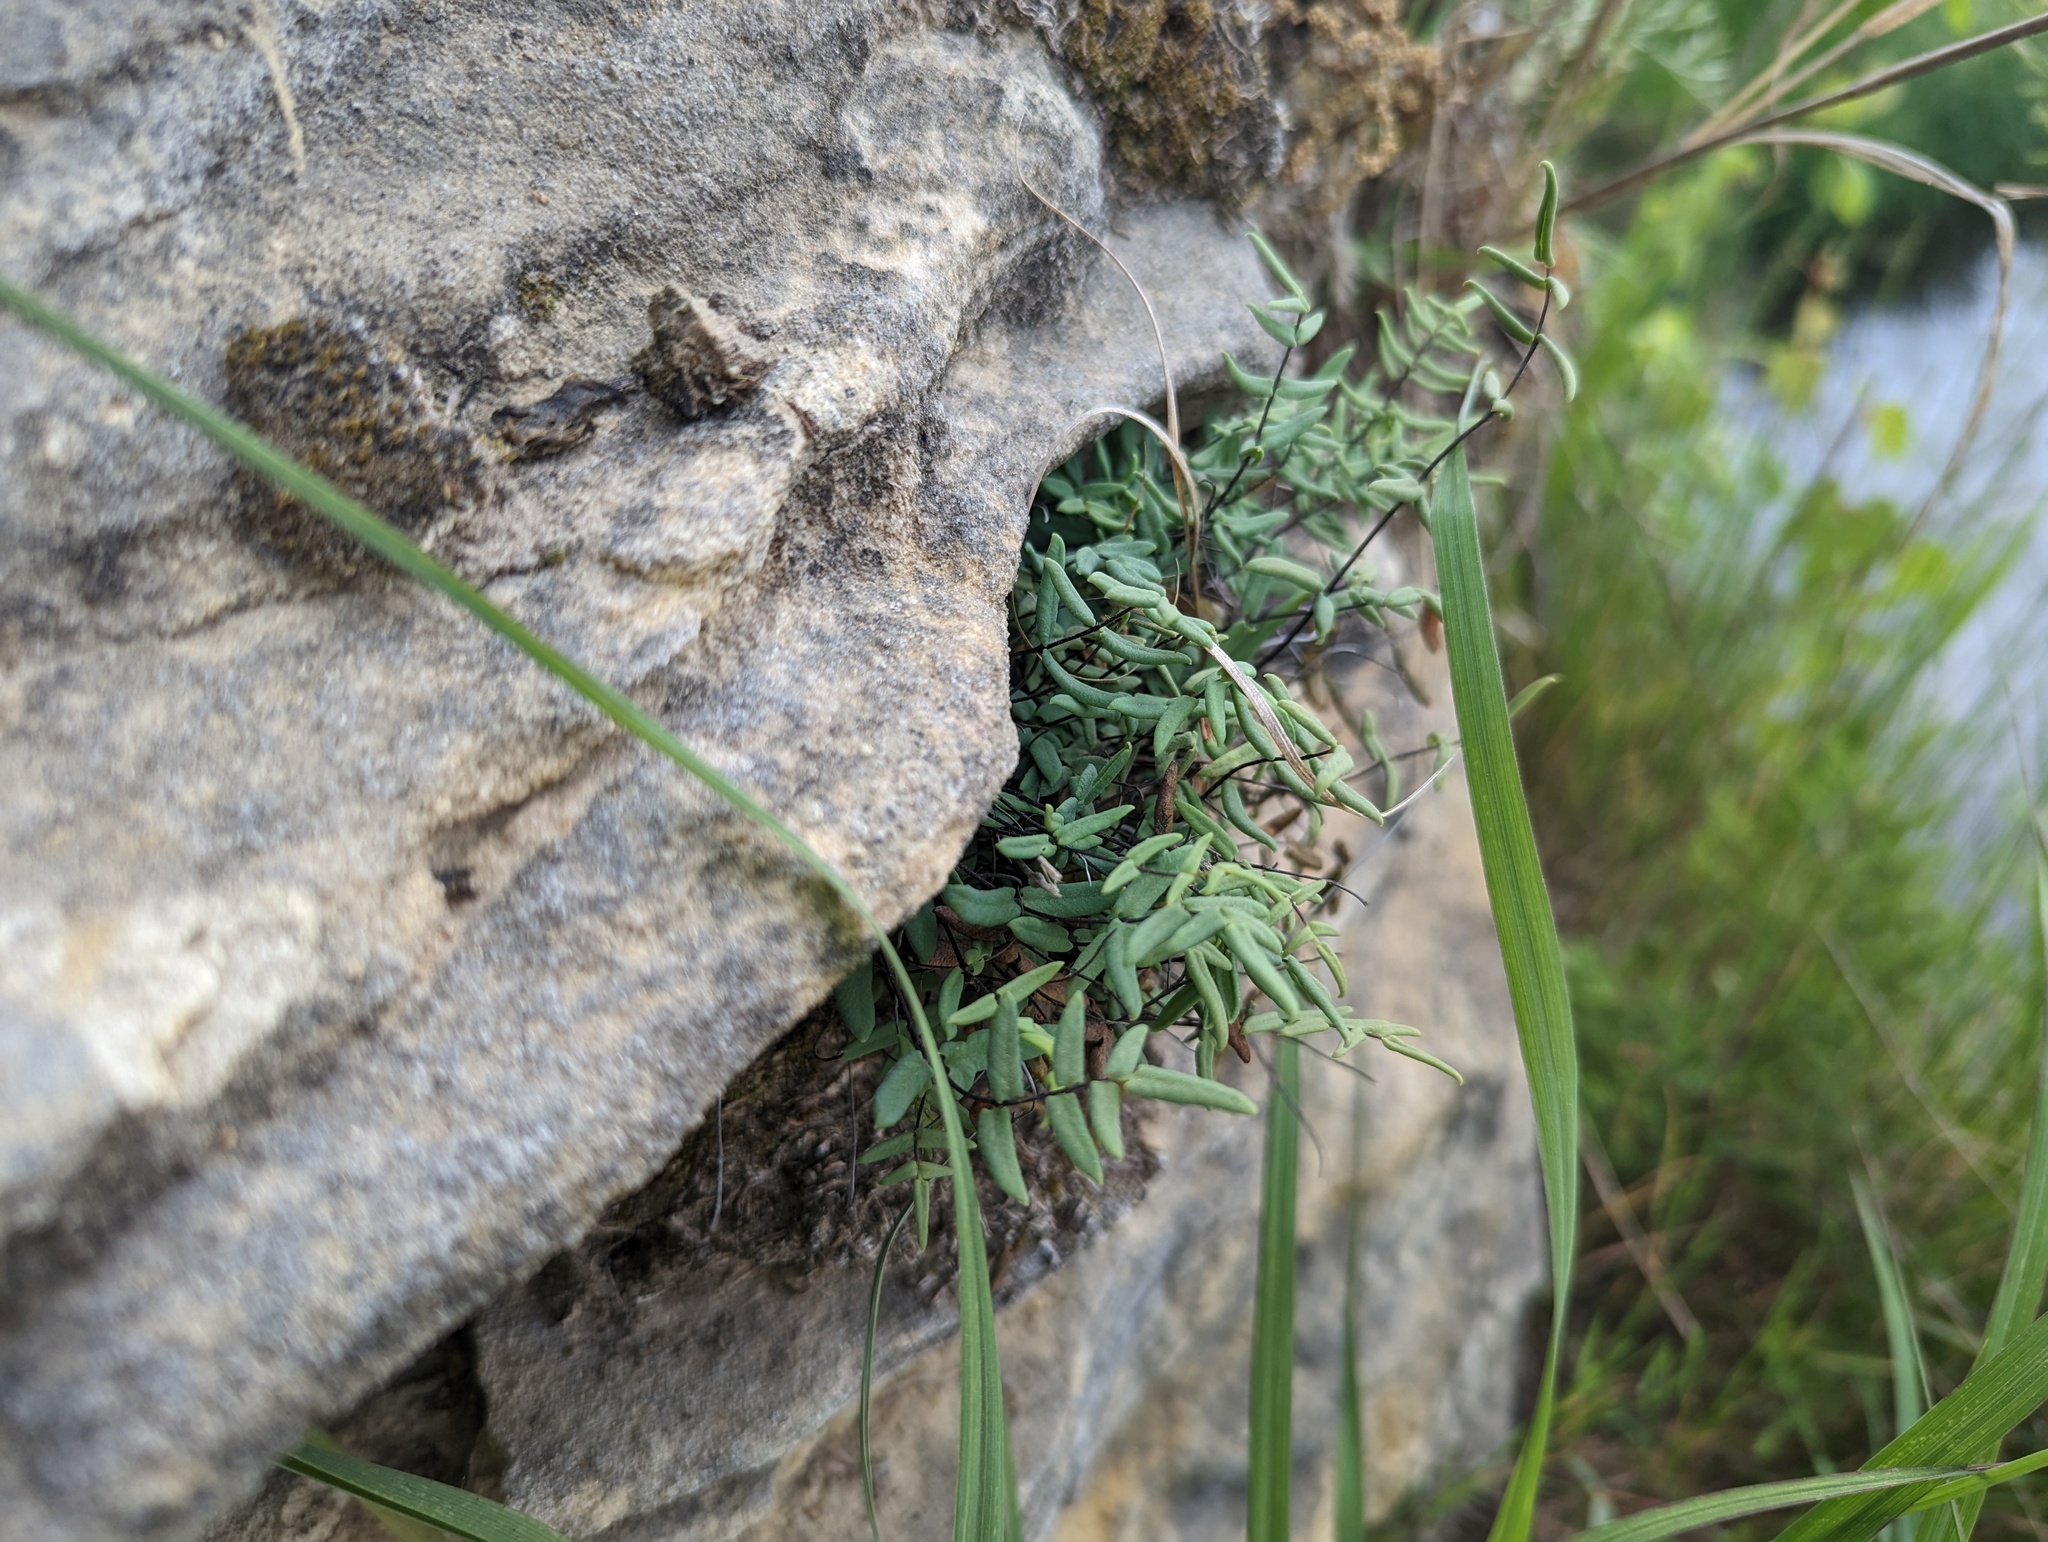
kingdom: Plantae
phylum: Tracheophyta
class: Polypodiopsida
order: Polypodiales
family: Pteridaceae
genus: Pellaea
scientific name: Pellaea glabella
